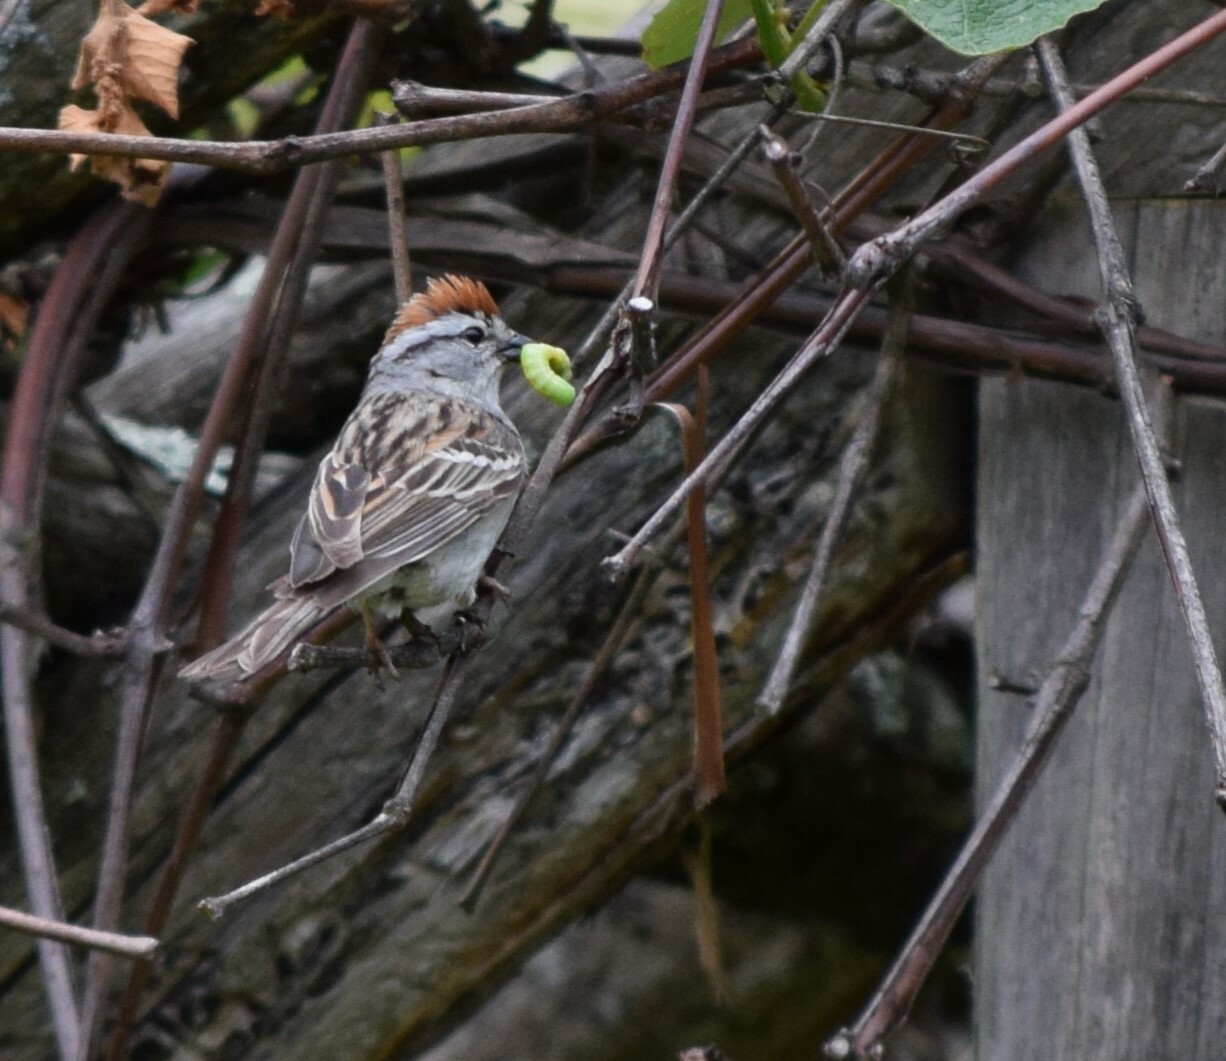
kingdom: Animalia
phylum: Chordata
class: Aves
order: Passeriformes
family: Passerellidae
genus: Spizella
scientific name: Spizella passerina
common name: Chipping sparrow
